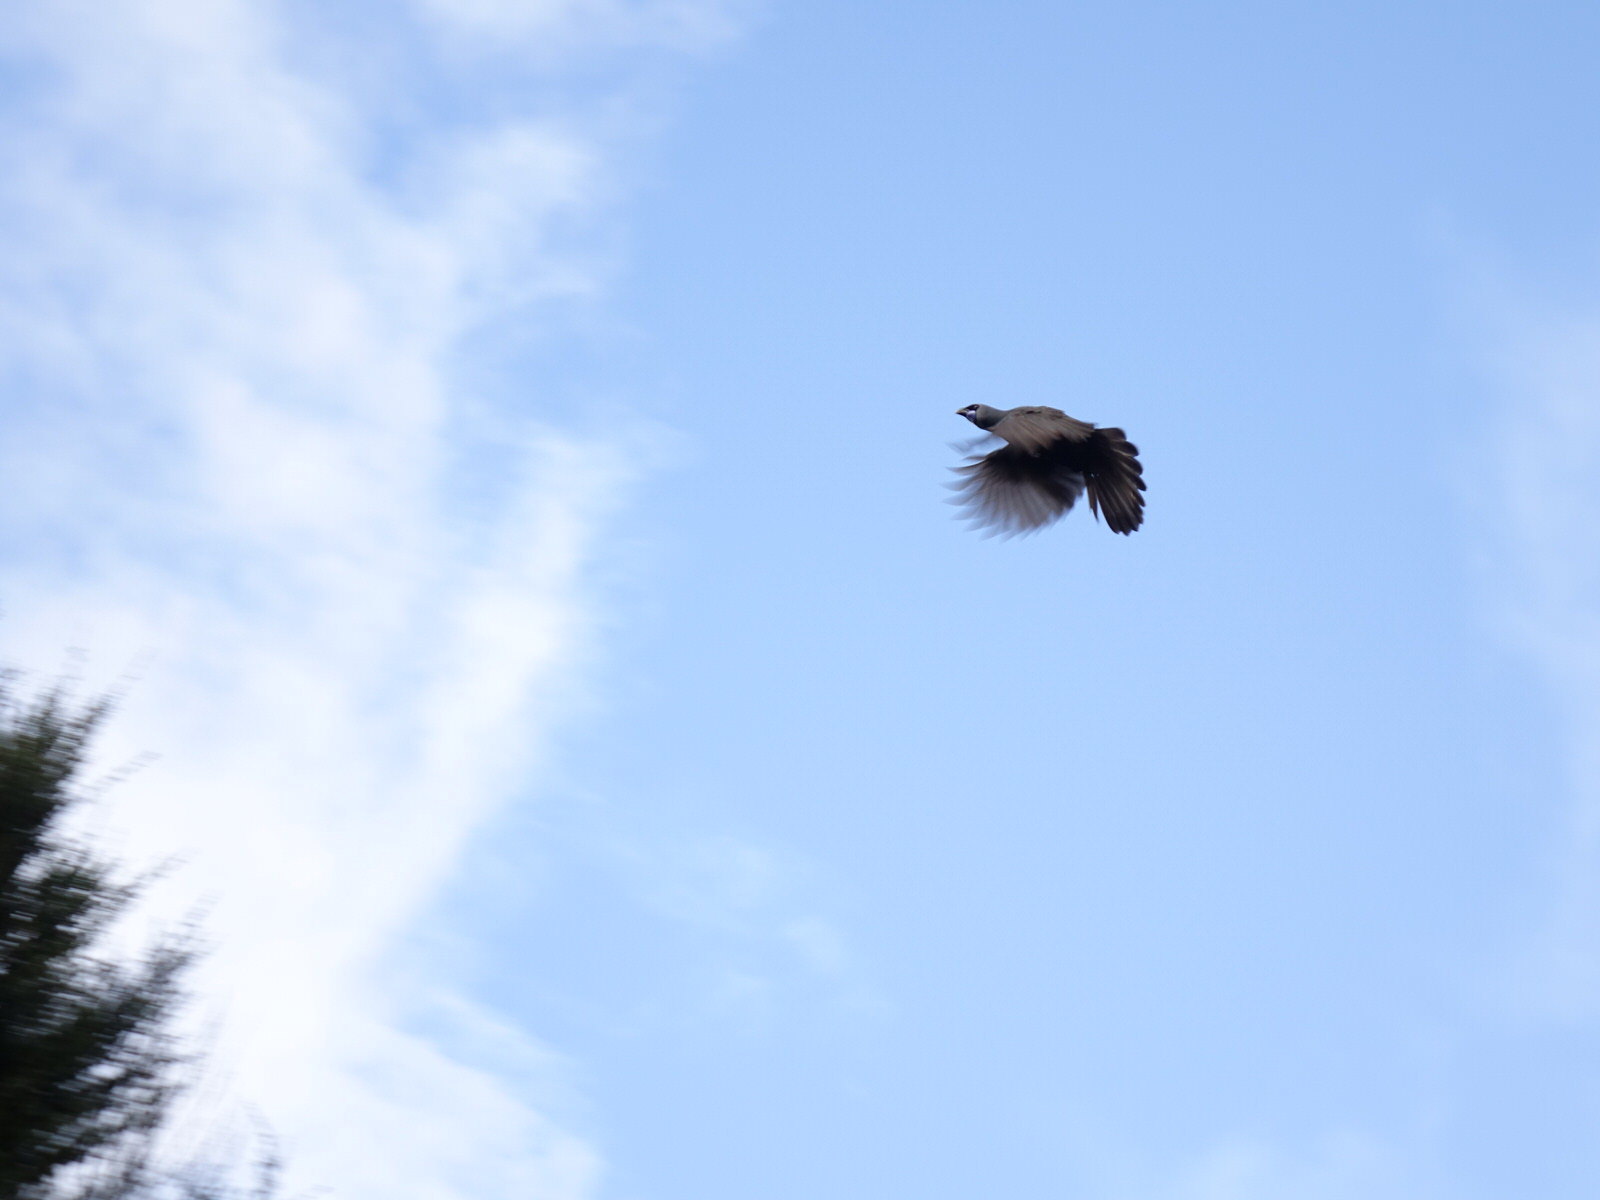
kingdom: Animalia
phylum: Chordata
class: Aves
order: Passeriformes
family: Callaeatidae
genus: Callaeas
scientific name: Callaeas cinereus
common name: South island kokako
